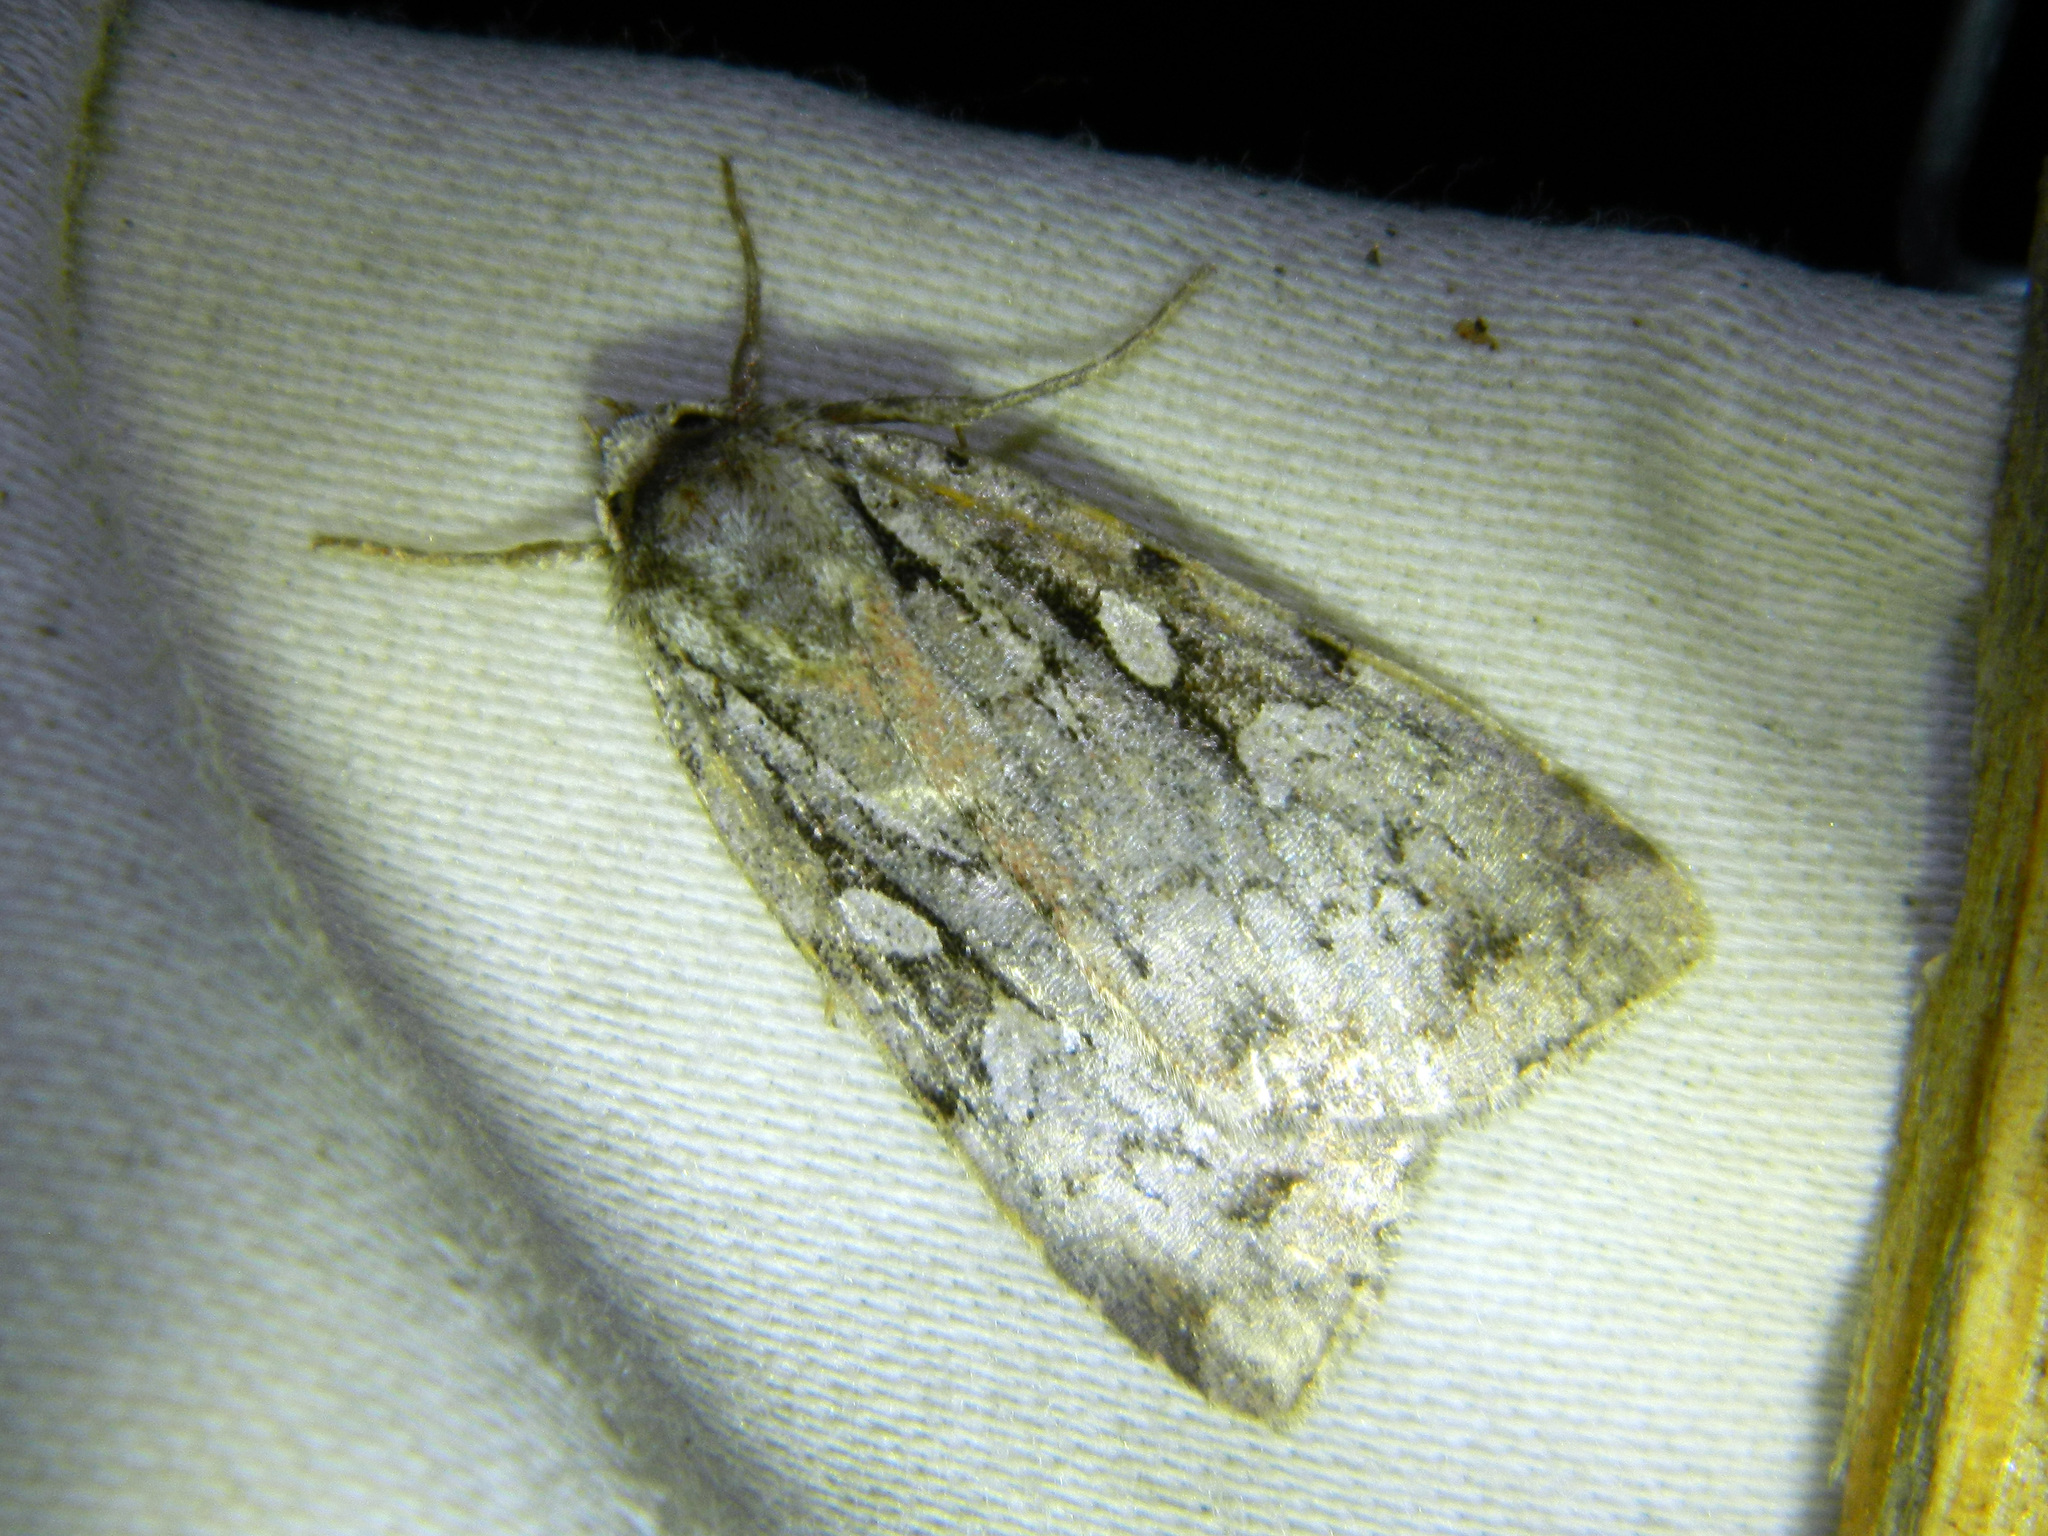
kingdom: Animalia
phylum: Arthropoda
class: Insecta
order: Lepidoptera
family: Noctuidae
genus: Xestia
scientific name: Xestia badicollis
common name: Northern variable dart
